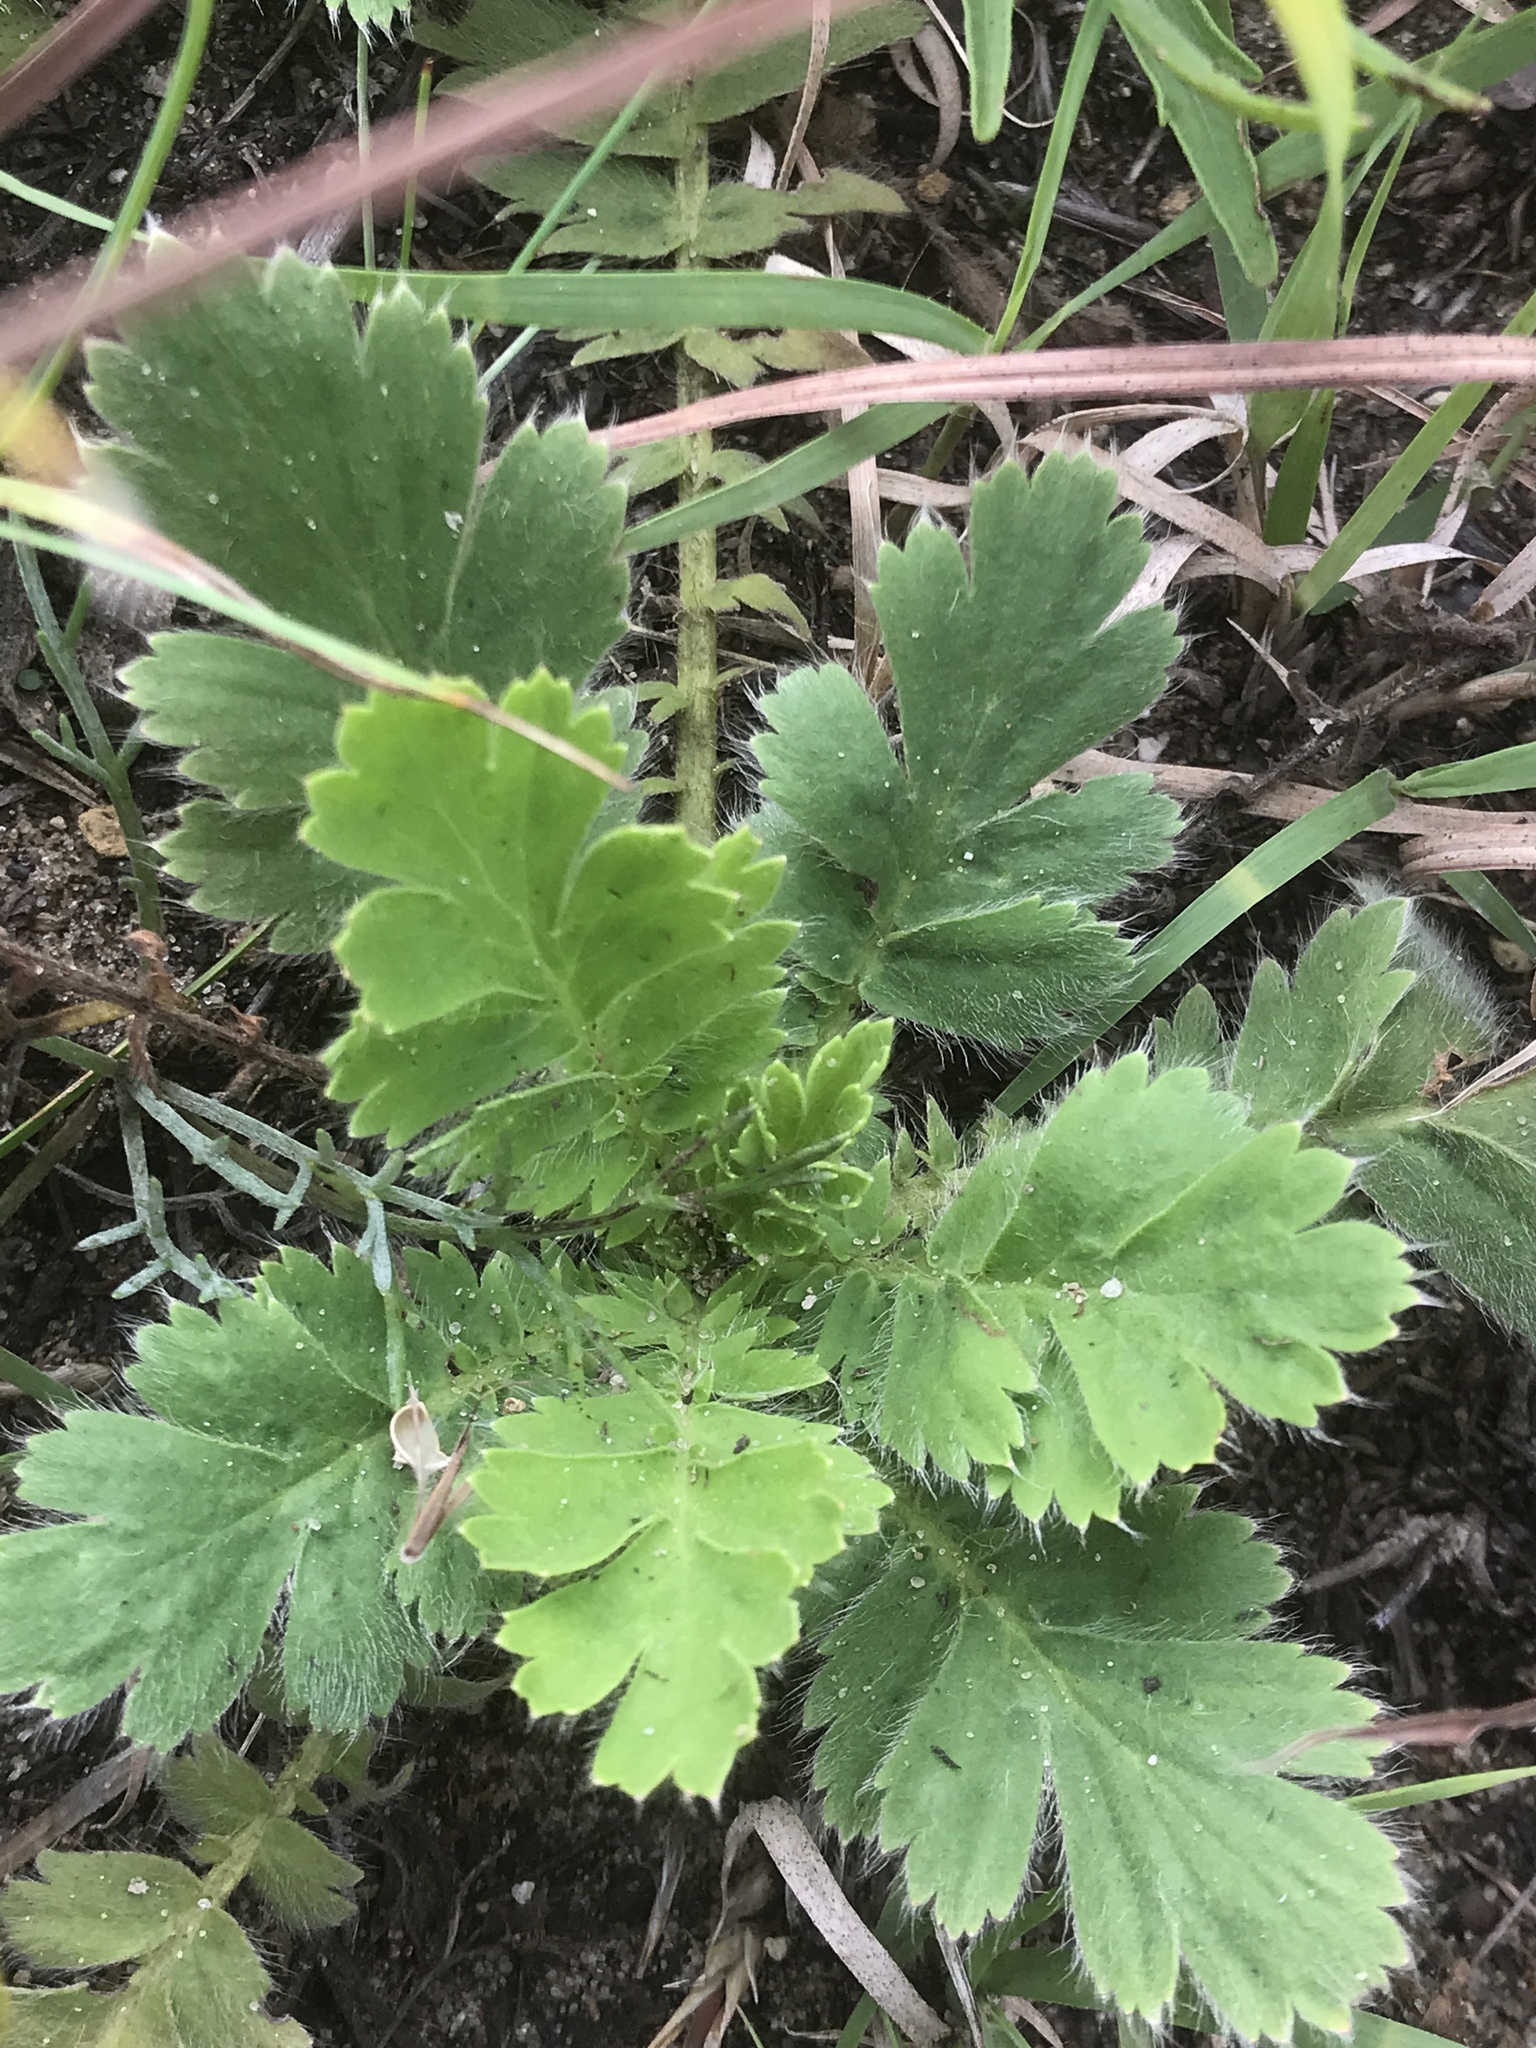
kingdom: Plantae
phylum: Tracheophyta
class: Magnoliopsida
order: Rosales
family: Rosaceae
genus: Geum
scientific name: Geum triflorum
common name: Old man's whiskers
